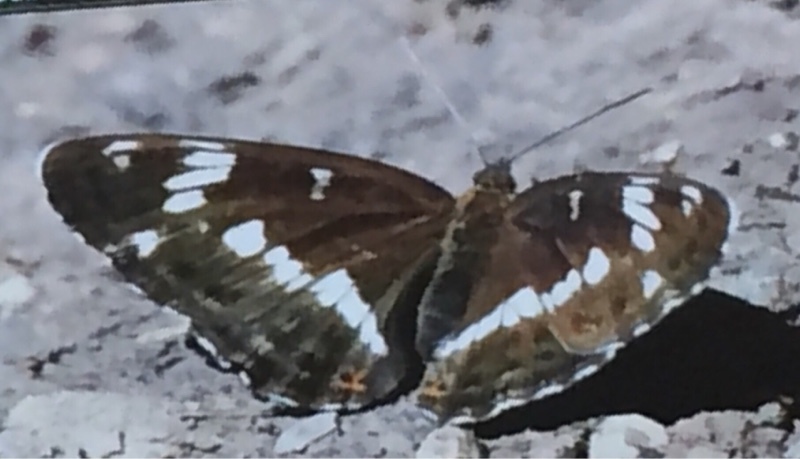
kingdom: Animalia
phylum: Arthropoda
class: Insecta
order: Lepidoptera
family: Nymphalidae
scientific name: Nymphalidae
